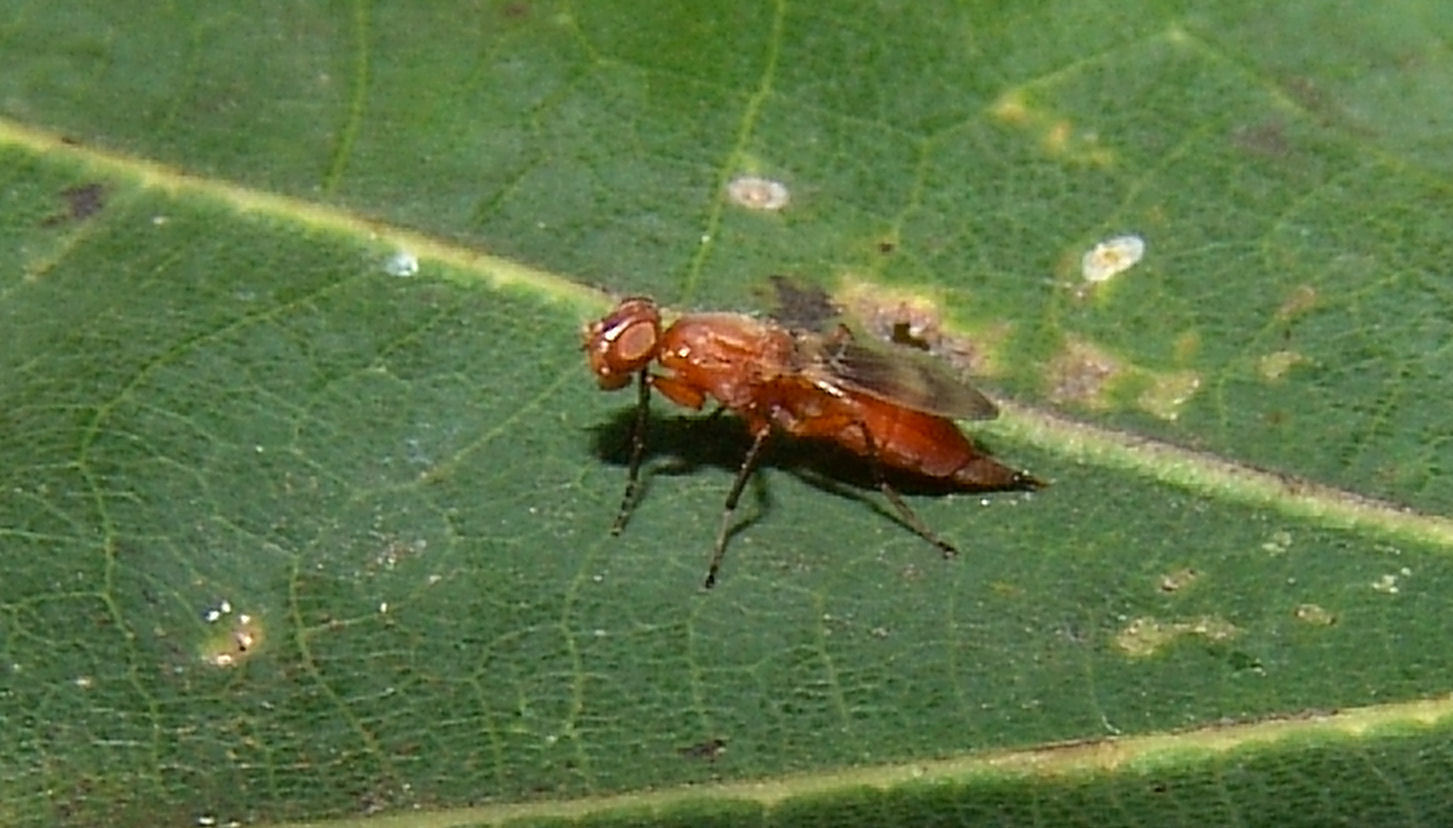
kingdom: Animalia
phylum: Arthropoda
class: Insecta
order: Diptera
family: Ulidiidae
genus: Zacompsia
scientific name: Zacompsia fulva
